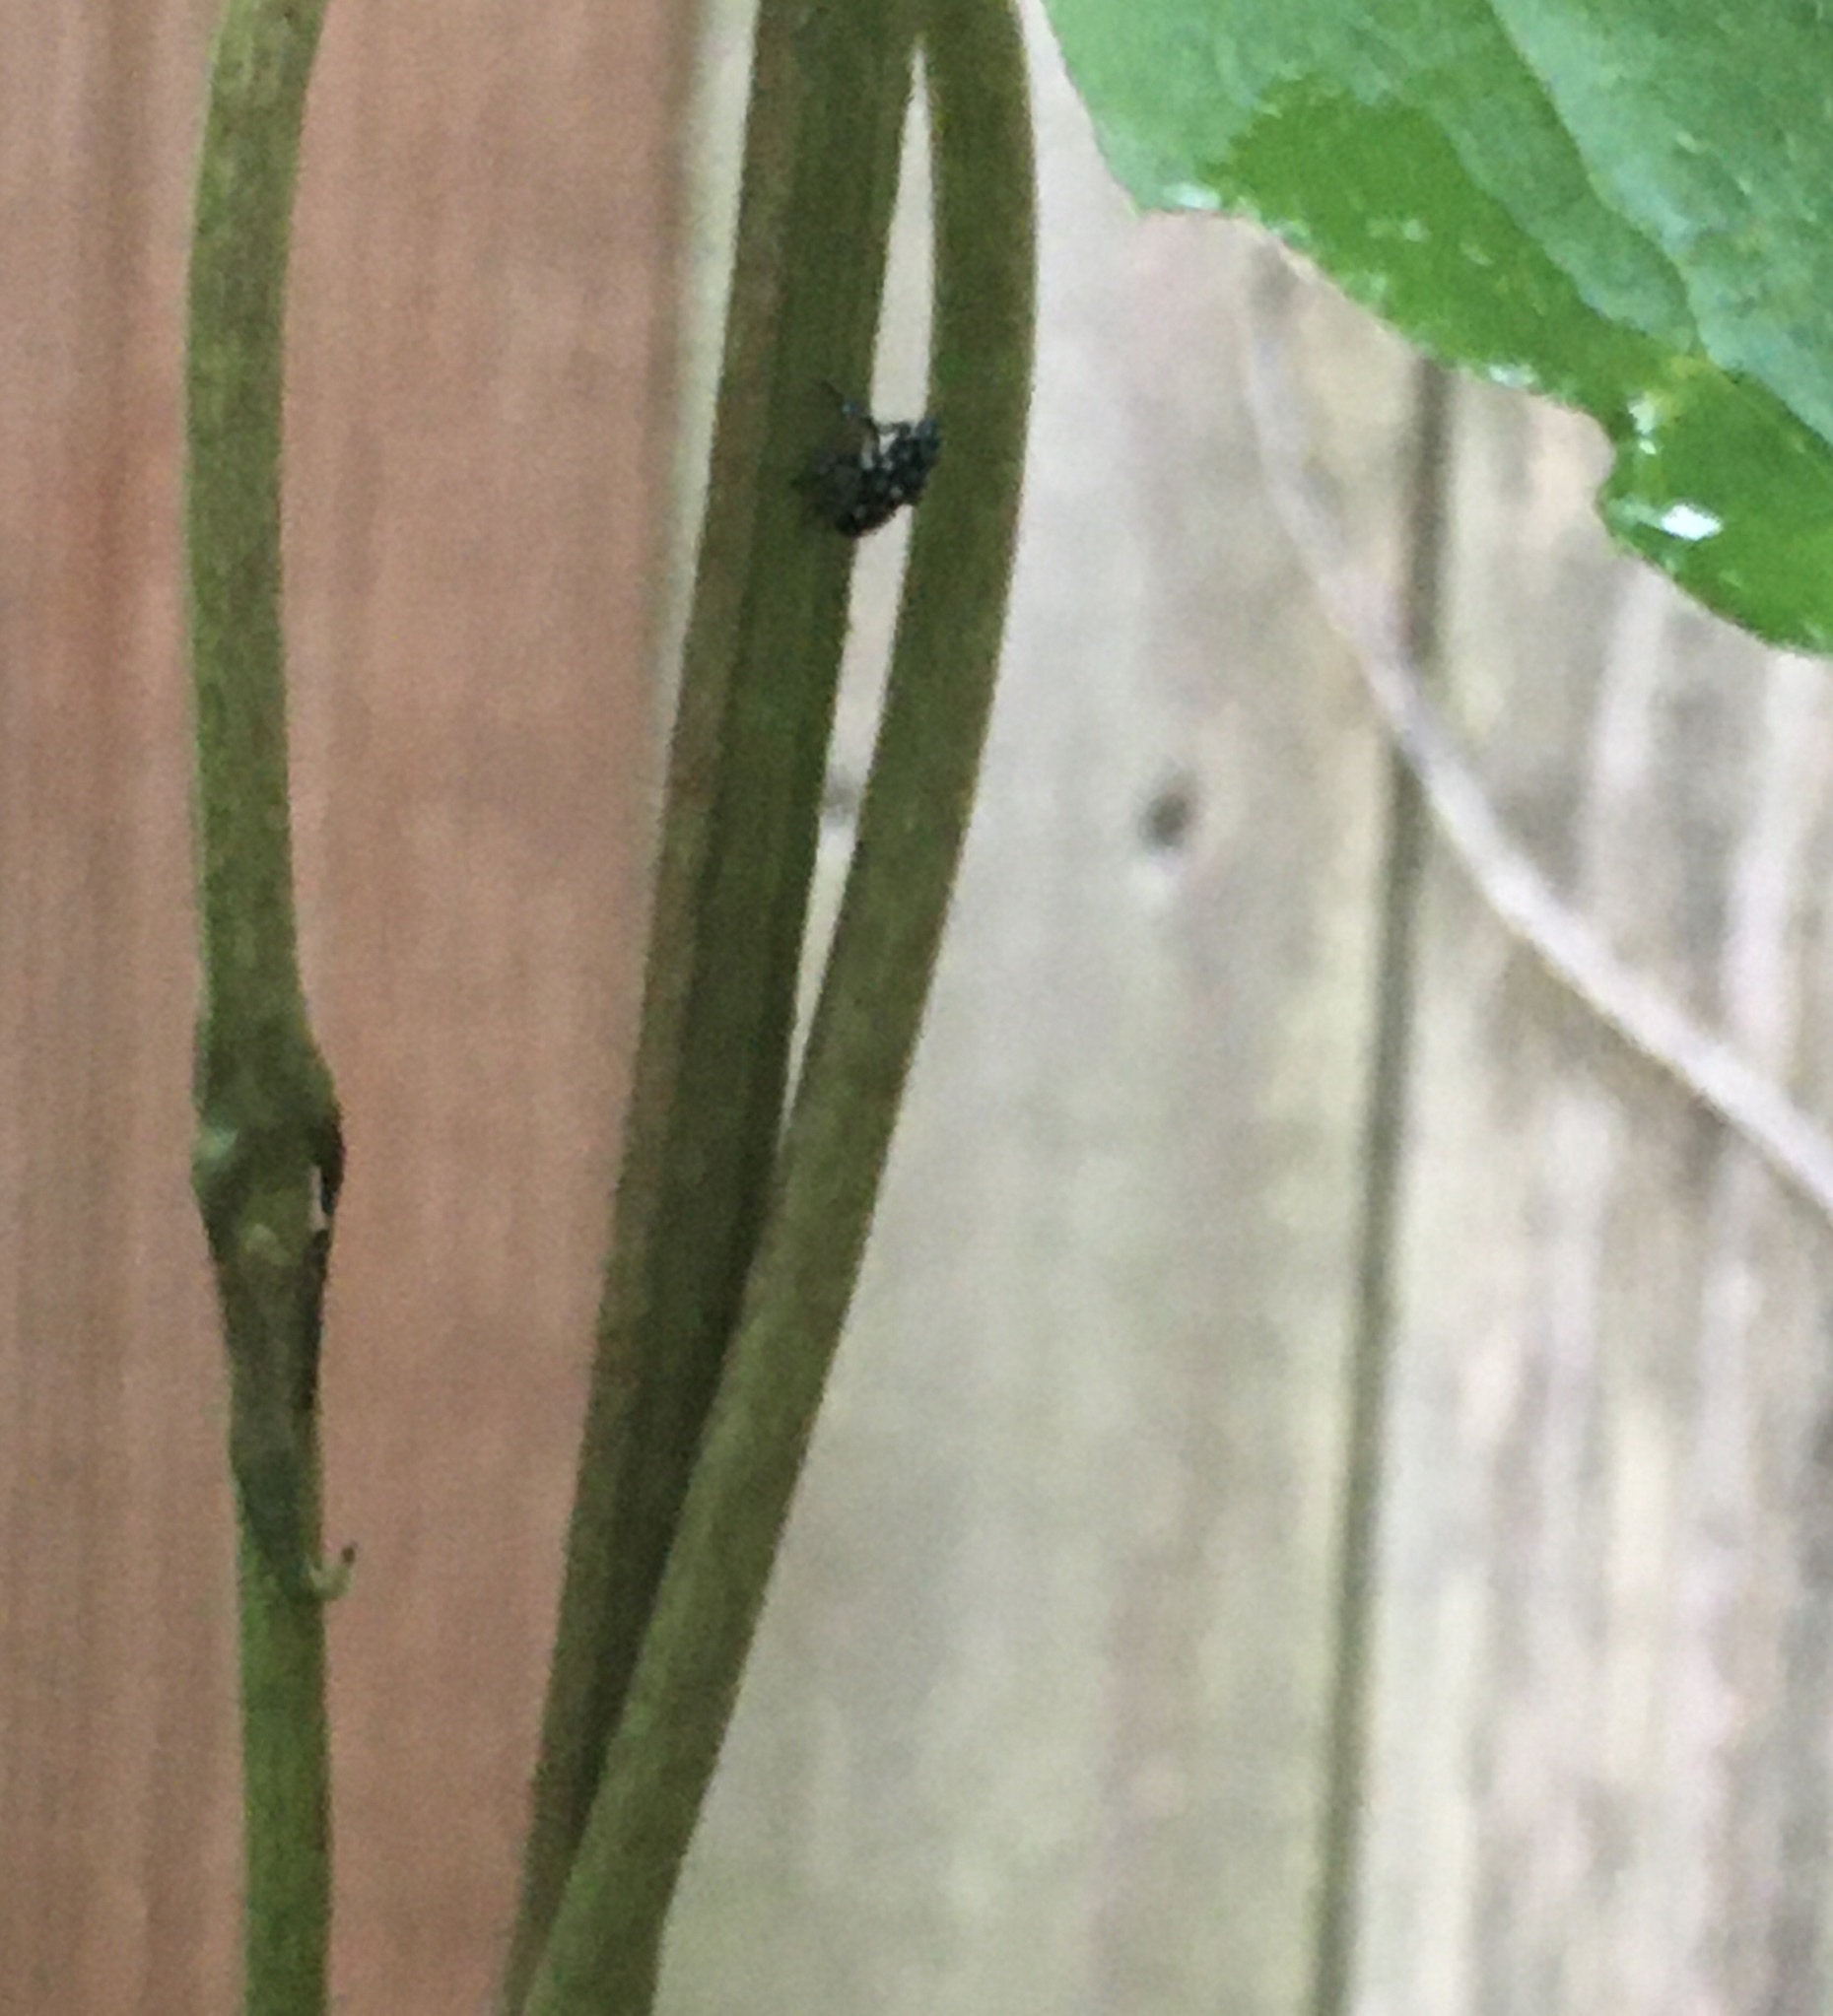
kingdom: Animalia
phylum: Arthropoda
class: Insecta
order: Hemiptera
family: Fulgoridae
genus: Lycorma
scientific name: Lycorma delicatula
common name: Spotted lanternfly
